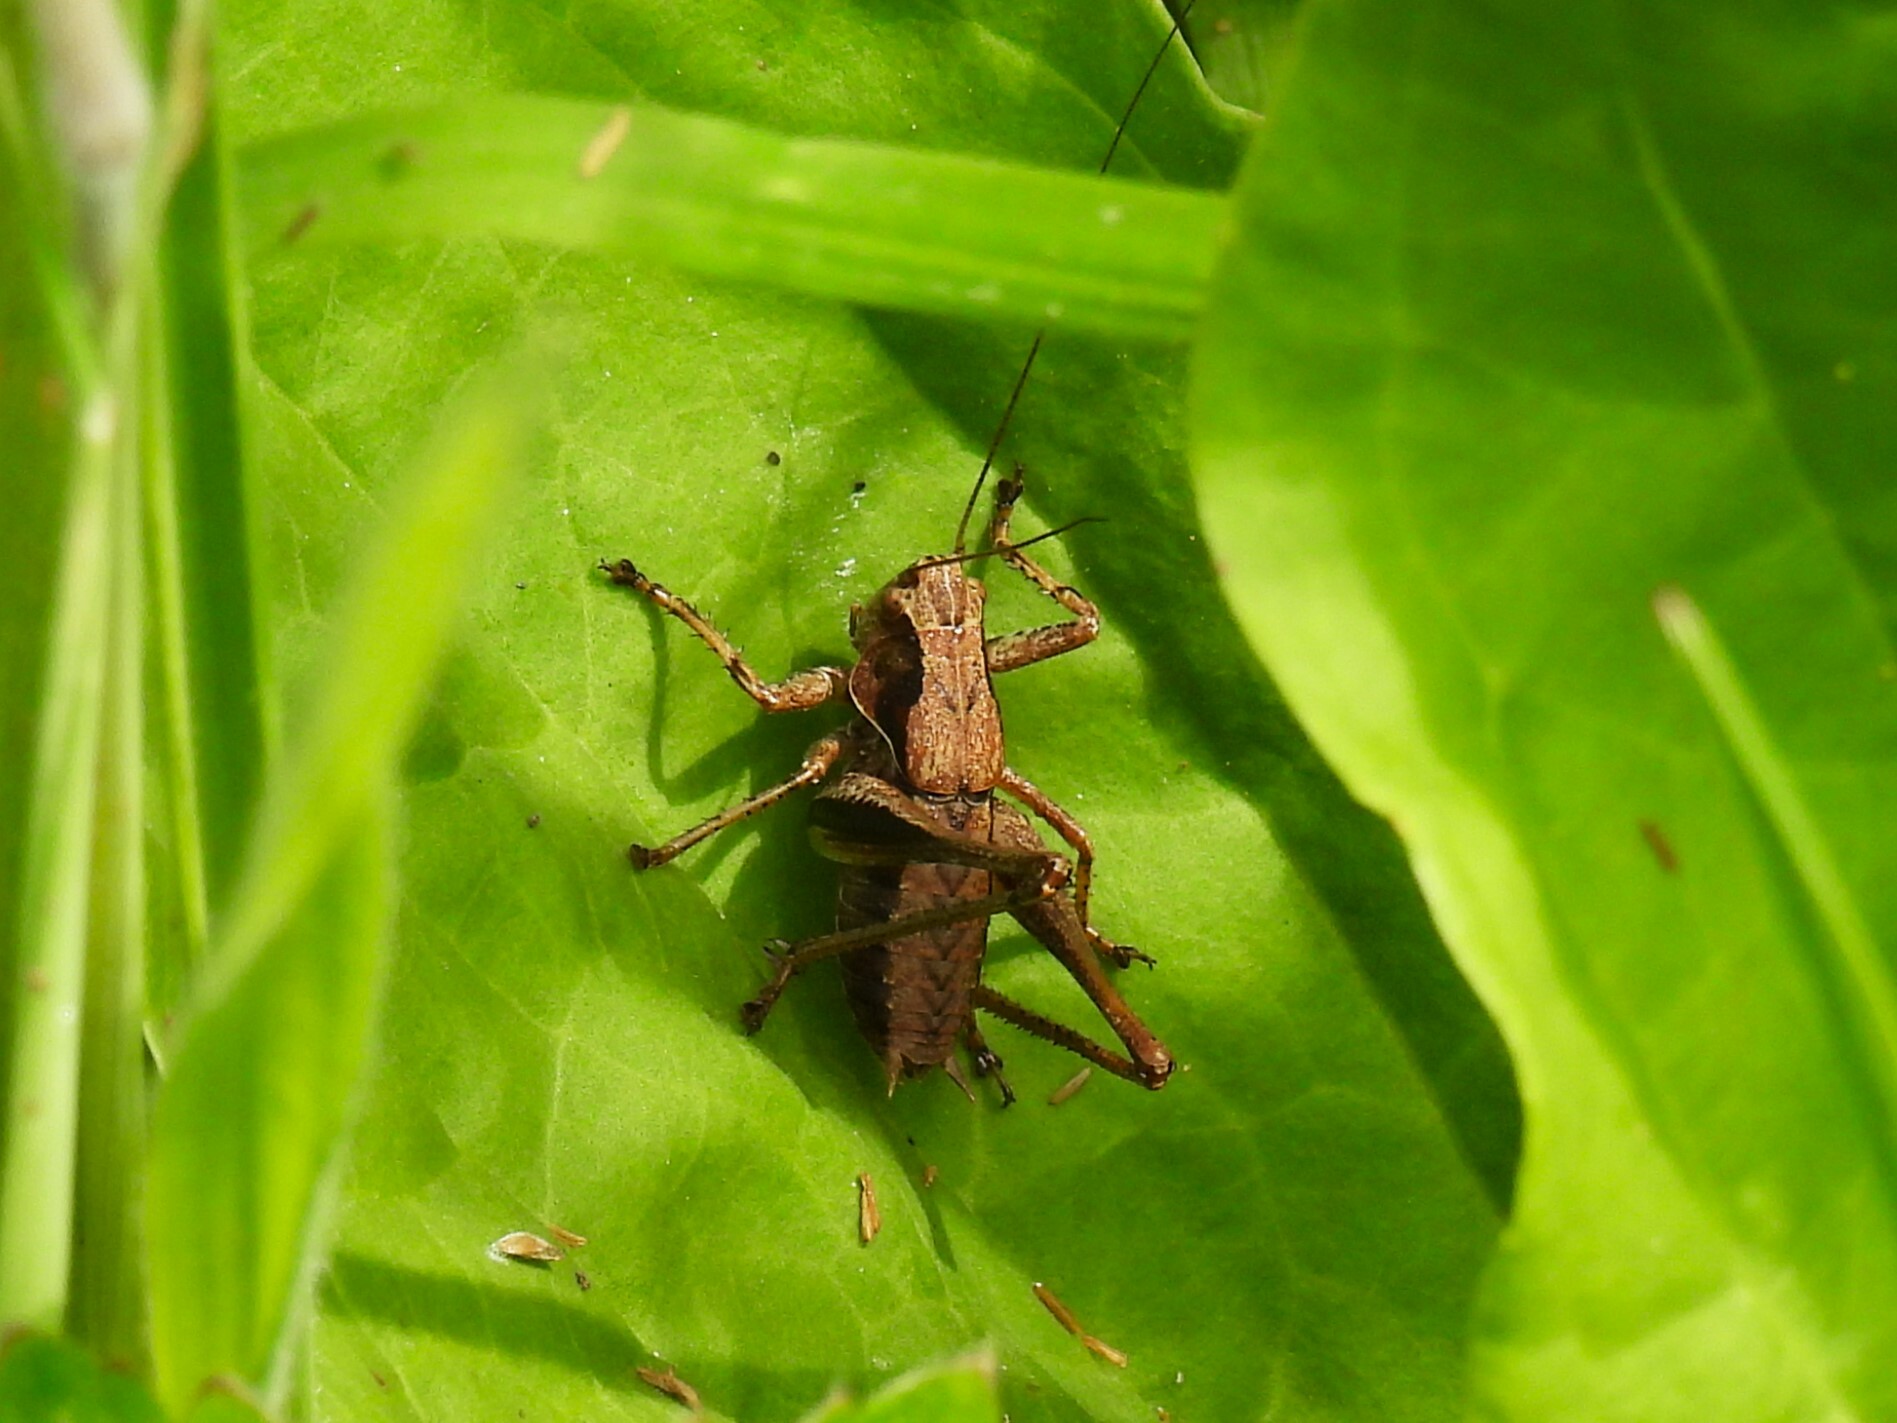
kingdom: Animalia
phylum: Arthropoda
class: Insecta
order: Orthoptera
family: Tettigoniidae
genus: Pholidoptera
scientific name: Pholidoptera griseoaptera
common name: Dark bush-cricket
